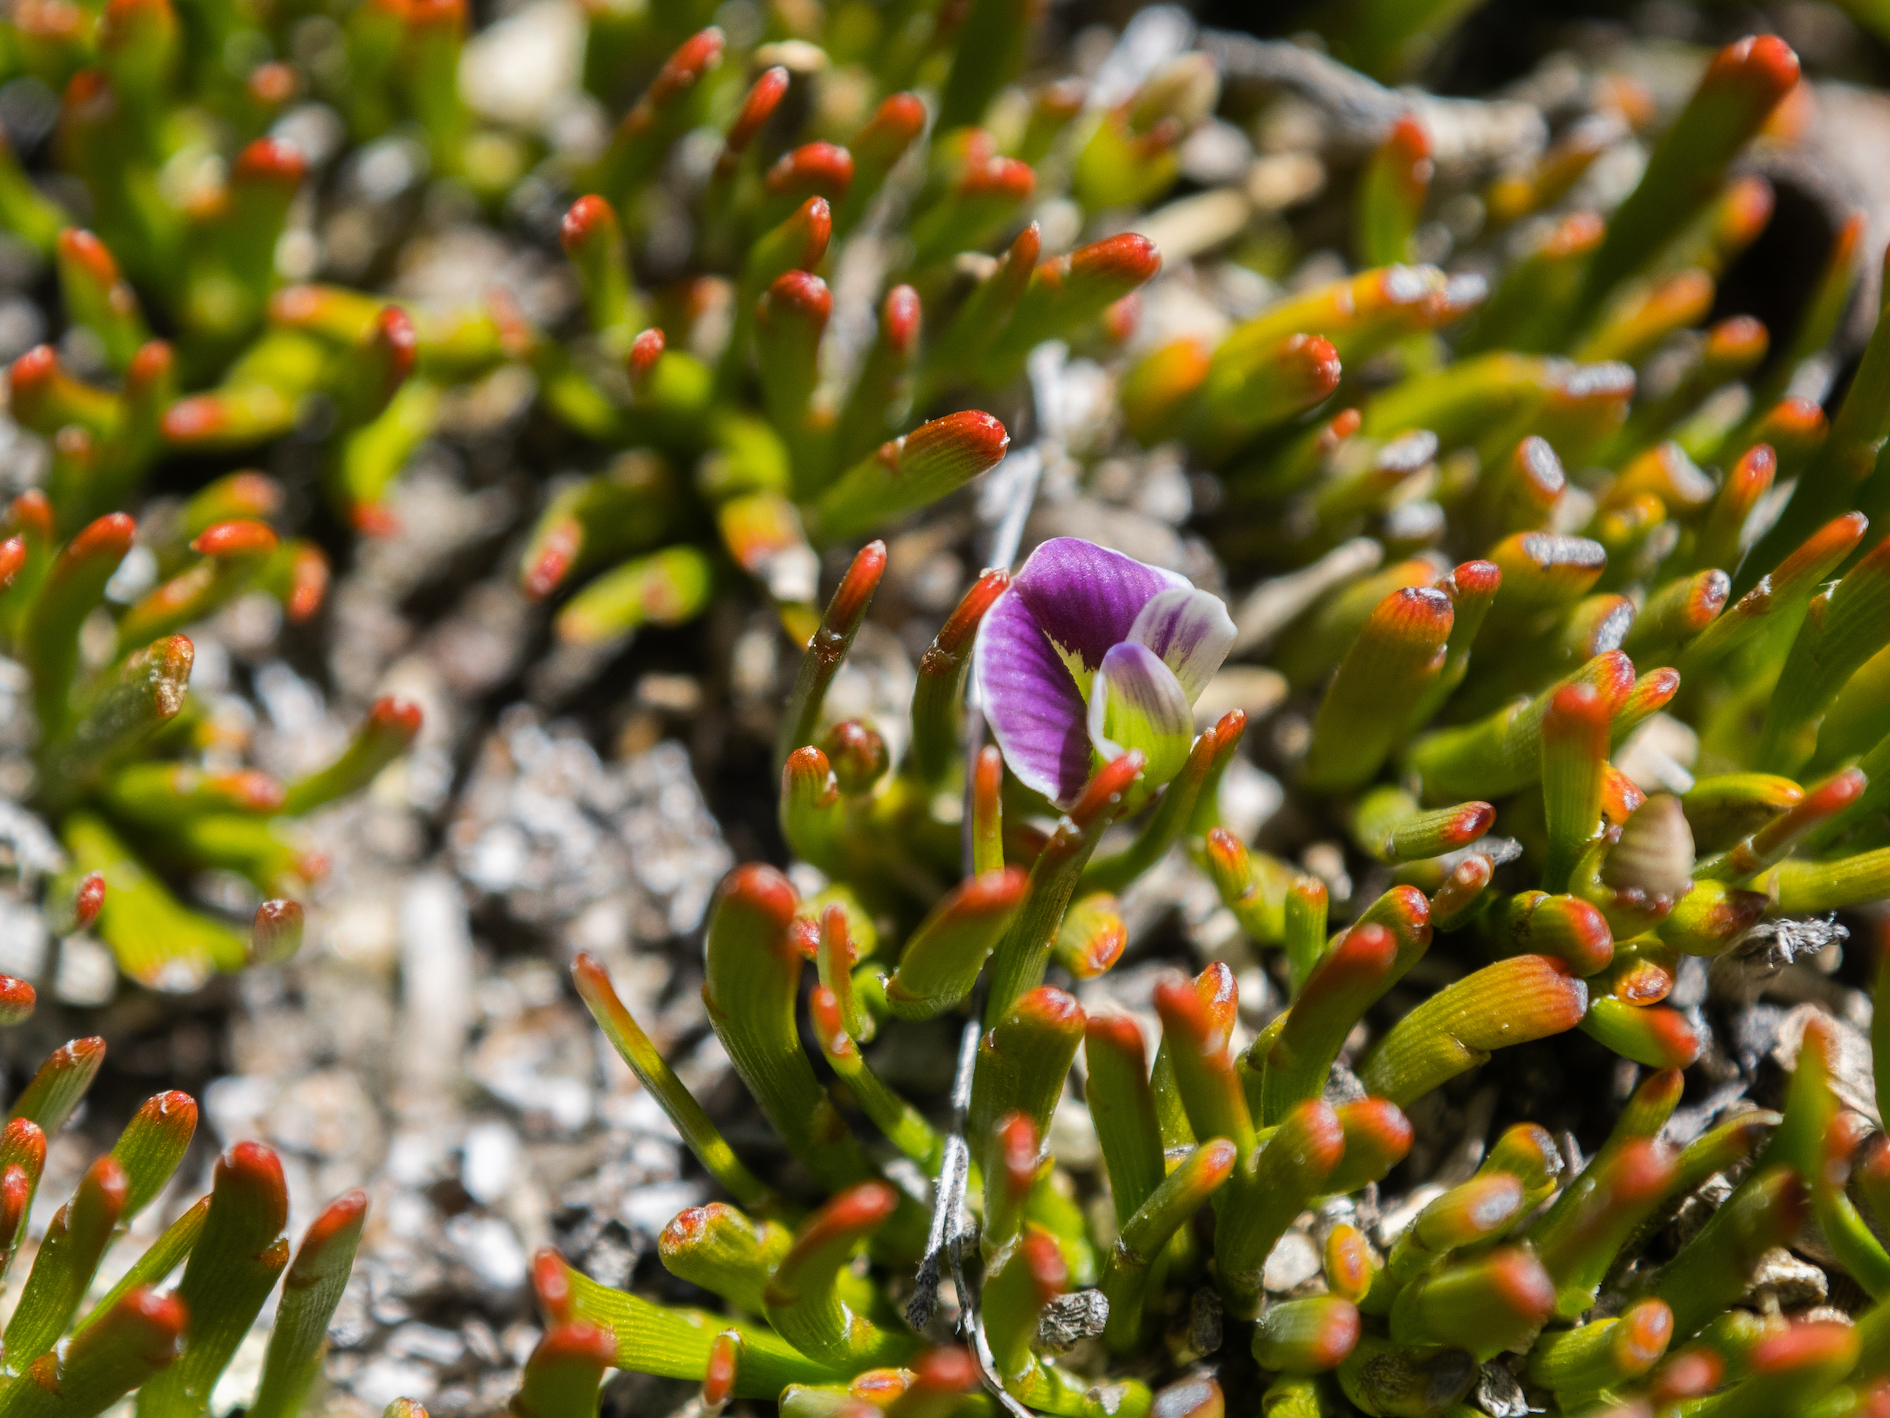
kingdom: Plantae
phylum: Tracheophyta
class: Magnoliopsida
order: Fabales
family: Fabaceae
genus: Carmichaelia
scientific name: Carmichaelia nana
